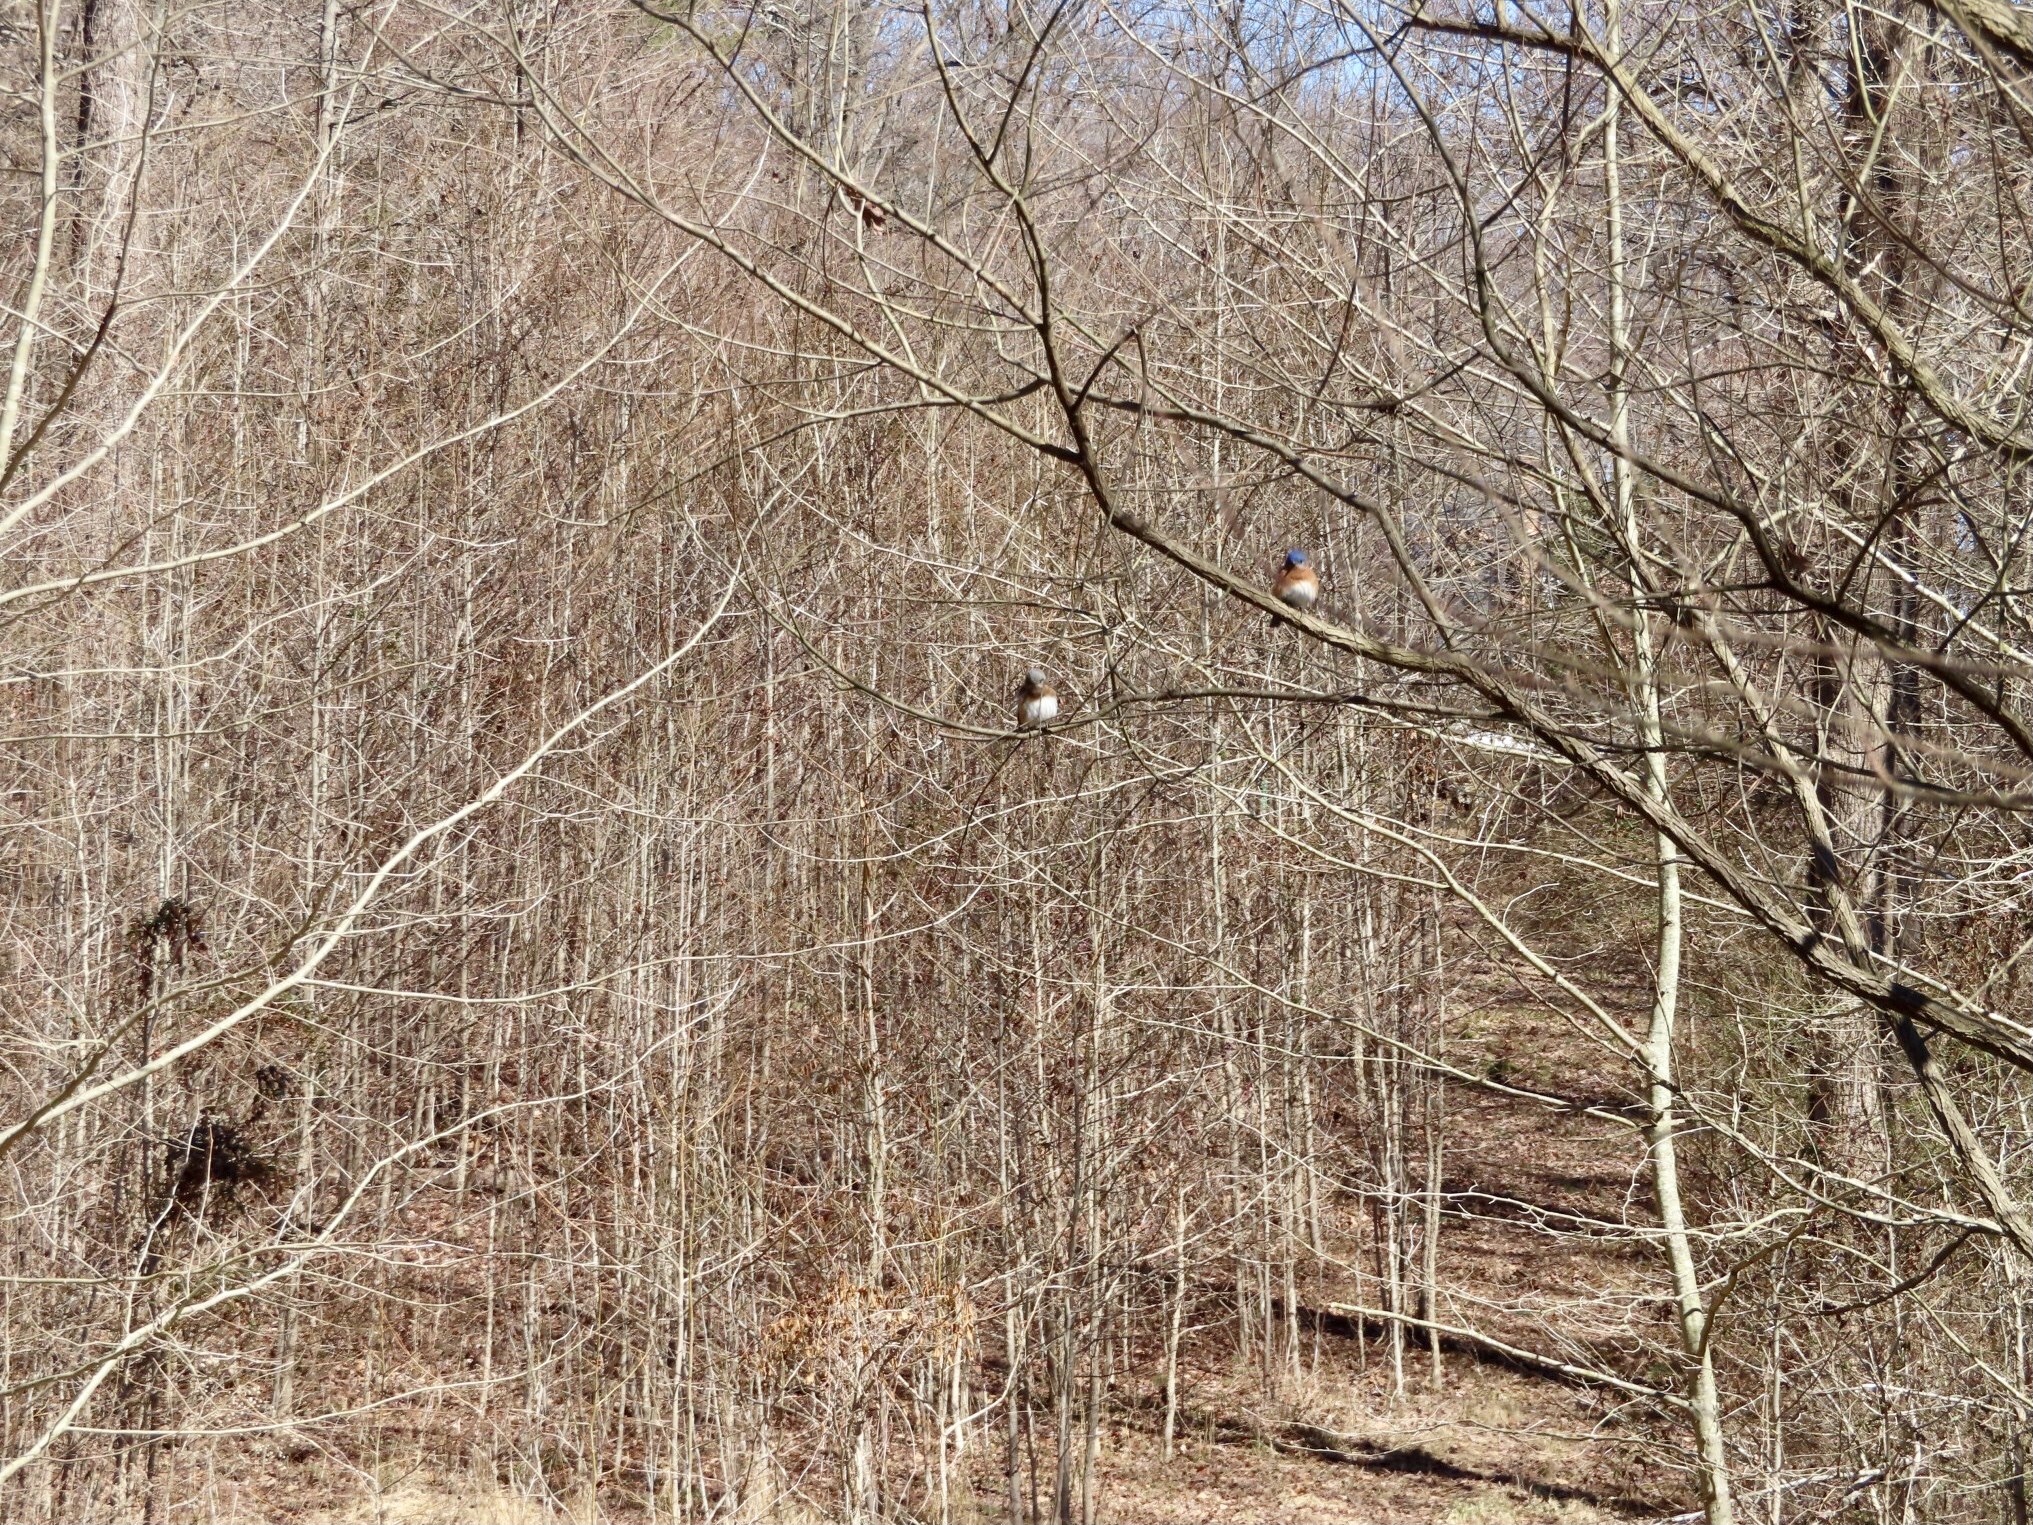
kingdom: Animalia
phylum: Chordata
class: Aves
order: Passeriformes
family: Turdidae
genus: Sialia
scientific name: Sialia sialis
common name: Eastern bluebird
